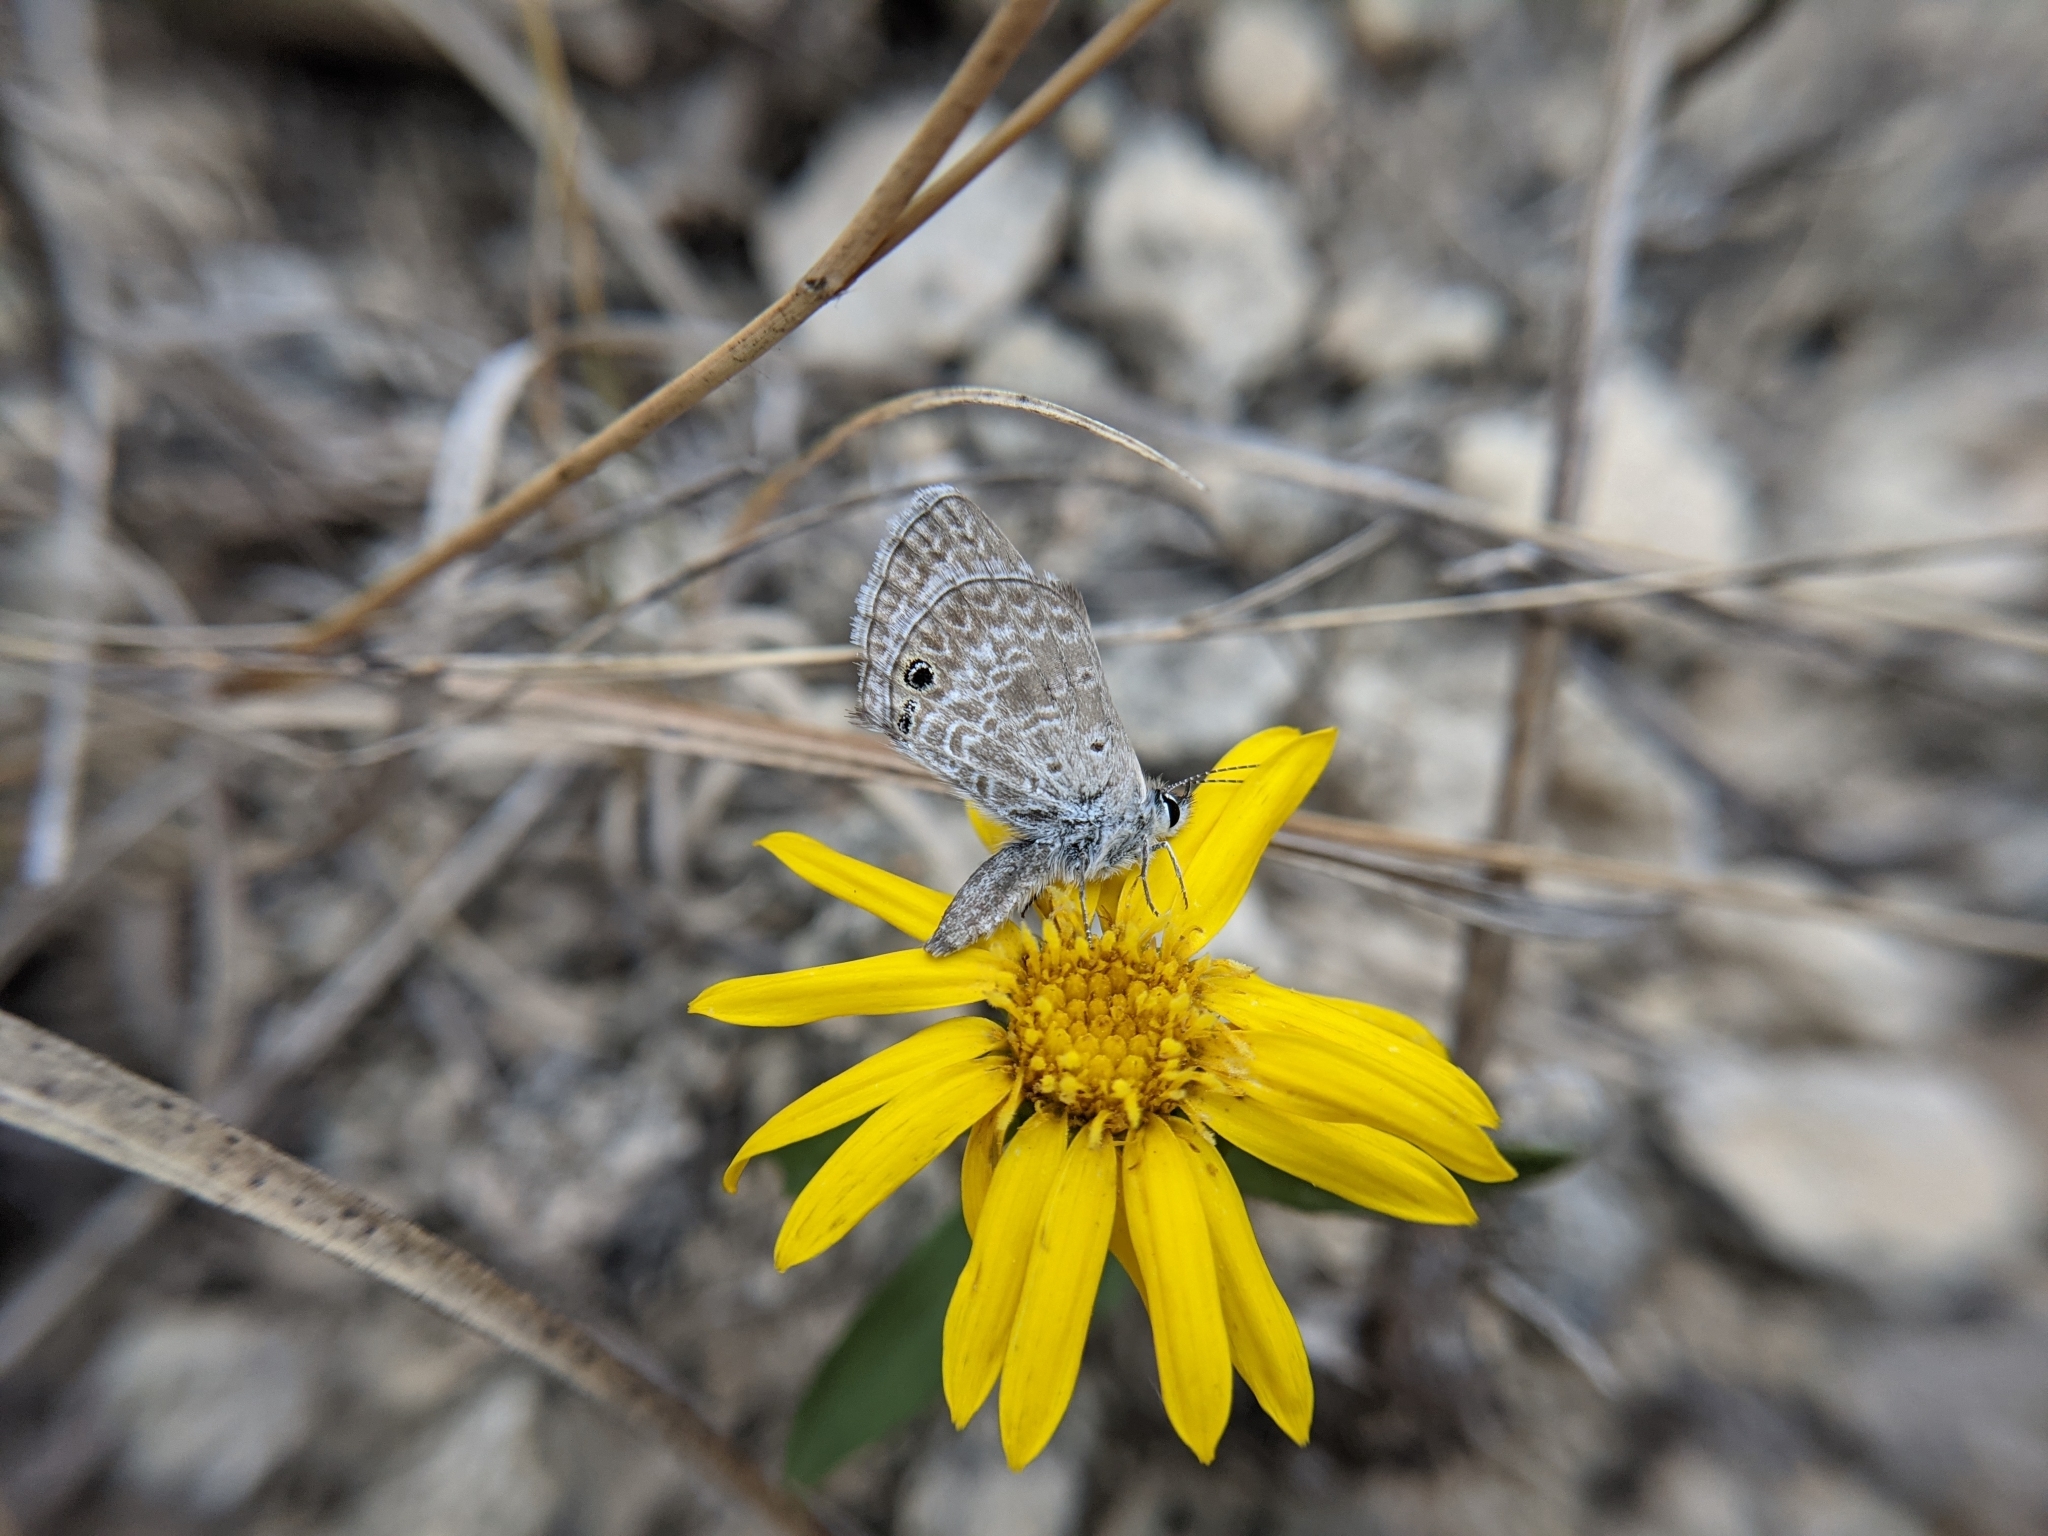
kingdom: Animalia
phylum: Arthropoda
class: Insecta
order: Lepidoptera
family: Lycaenidae
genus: Hemiargus
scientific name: Hemiargus ceraunus
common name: Ceraunus blue
